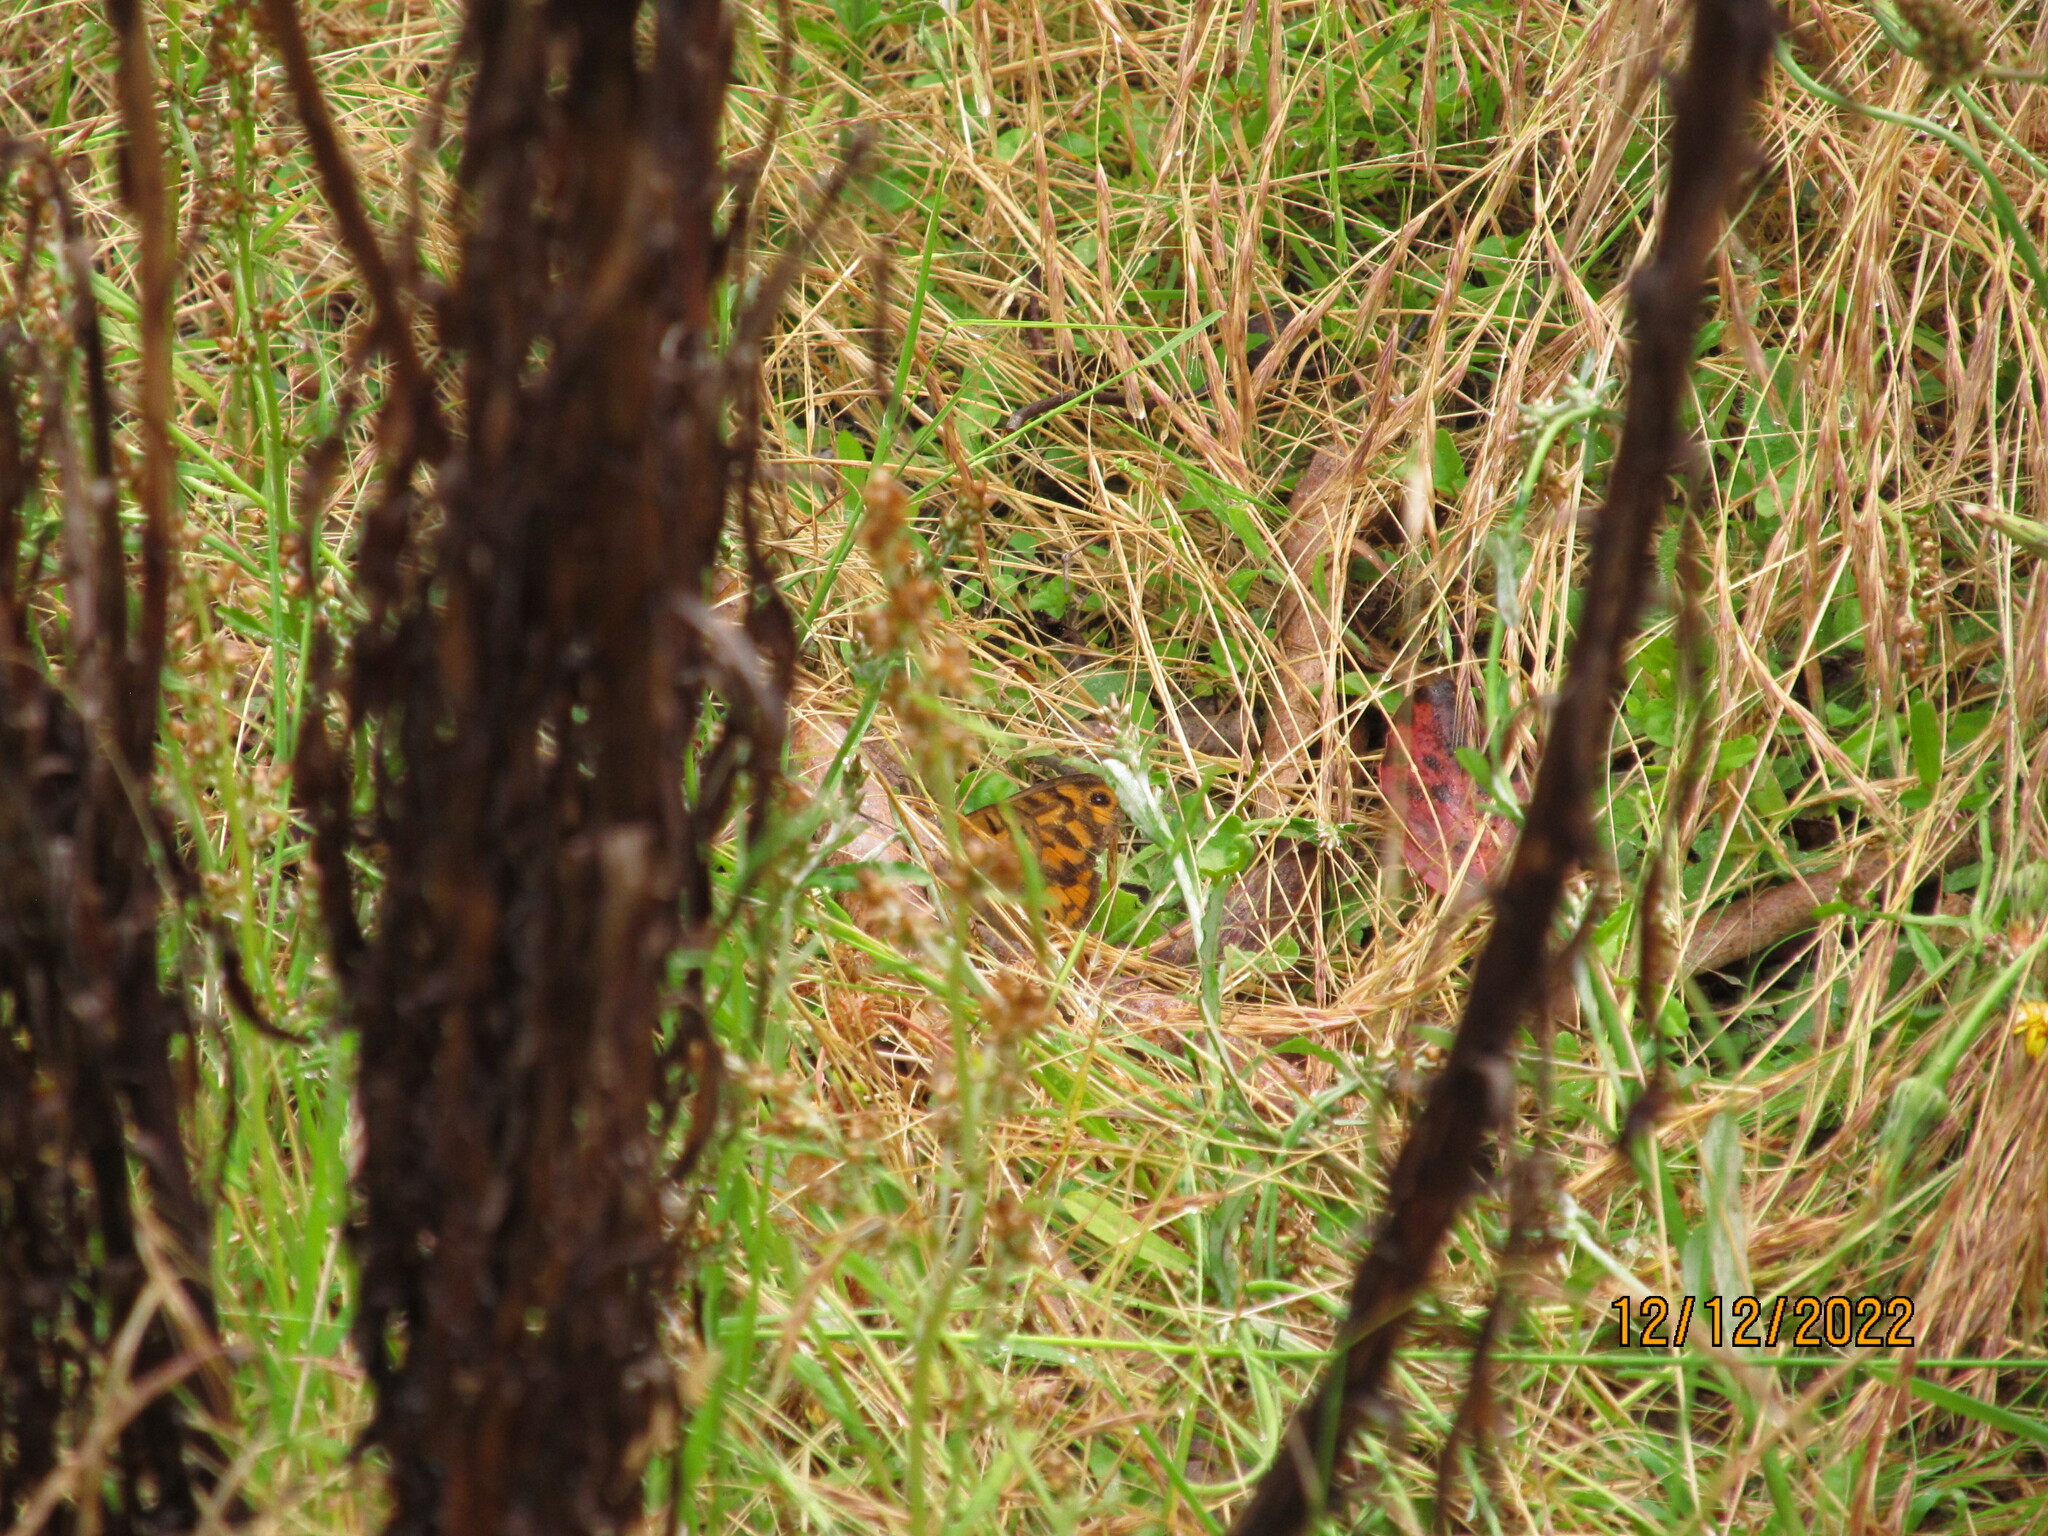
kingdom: Animalia
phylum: Arthropoda
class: Insecta
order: Lepidoptera
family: Nymphalidae
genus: Heteronympha
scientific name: Heteronympha merope
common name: Common brown
